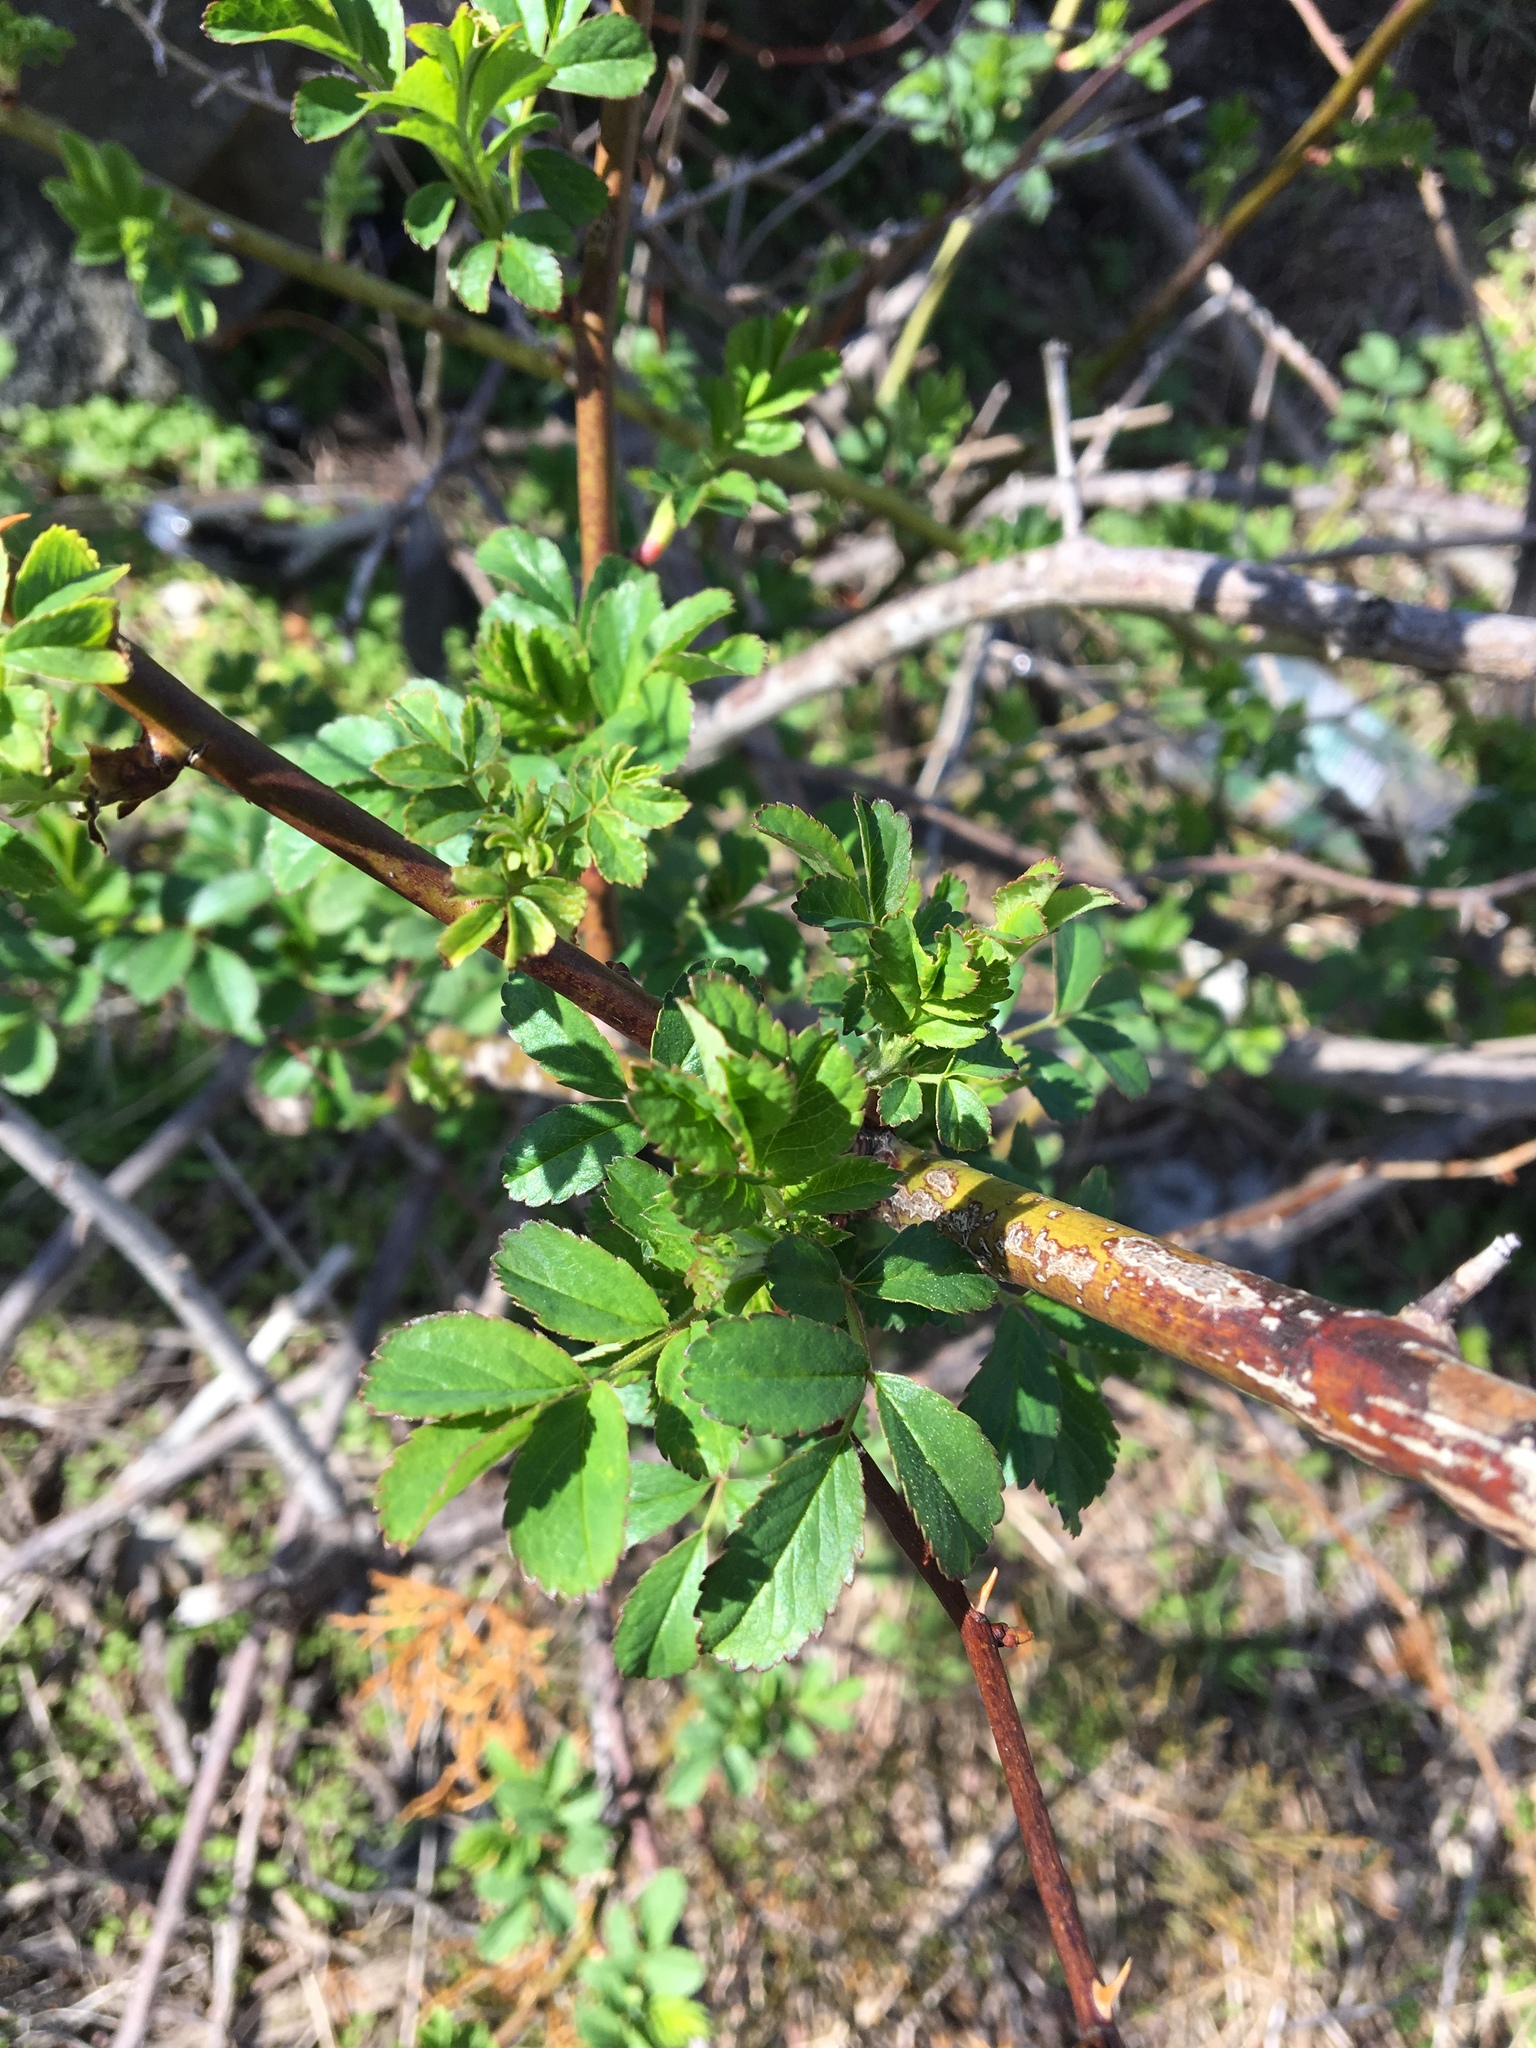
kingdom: Plantae
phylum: Tracheophyta
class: Magnoliopsida
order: Rosales
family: Rosaceae
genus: Rosa
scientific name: Rosa multiflora
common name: Multiflora rose
